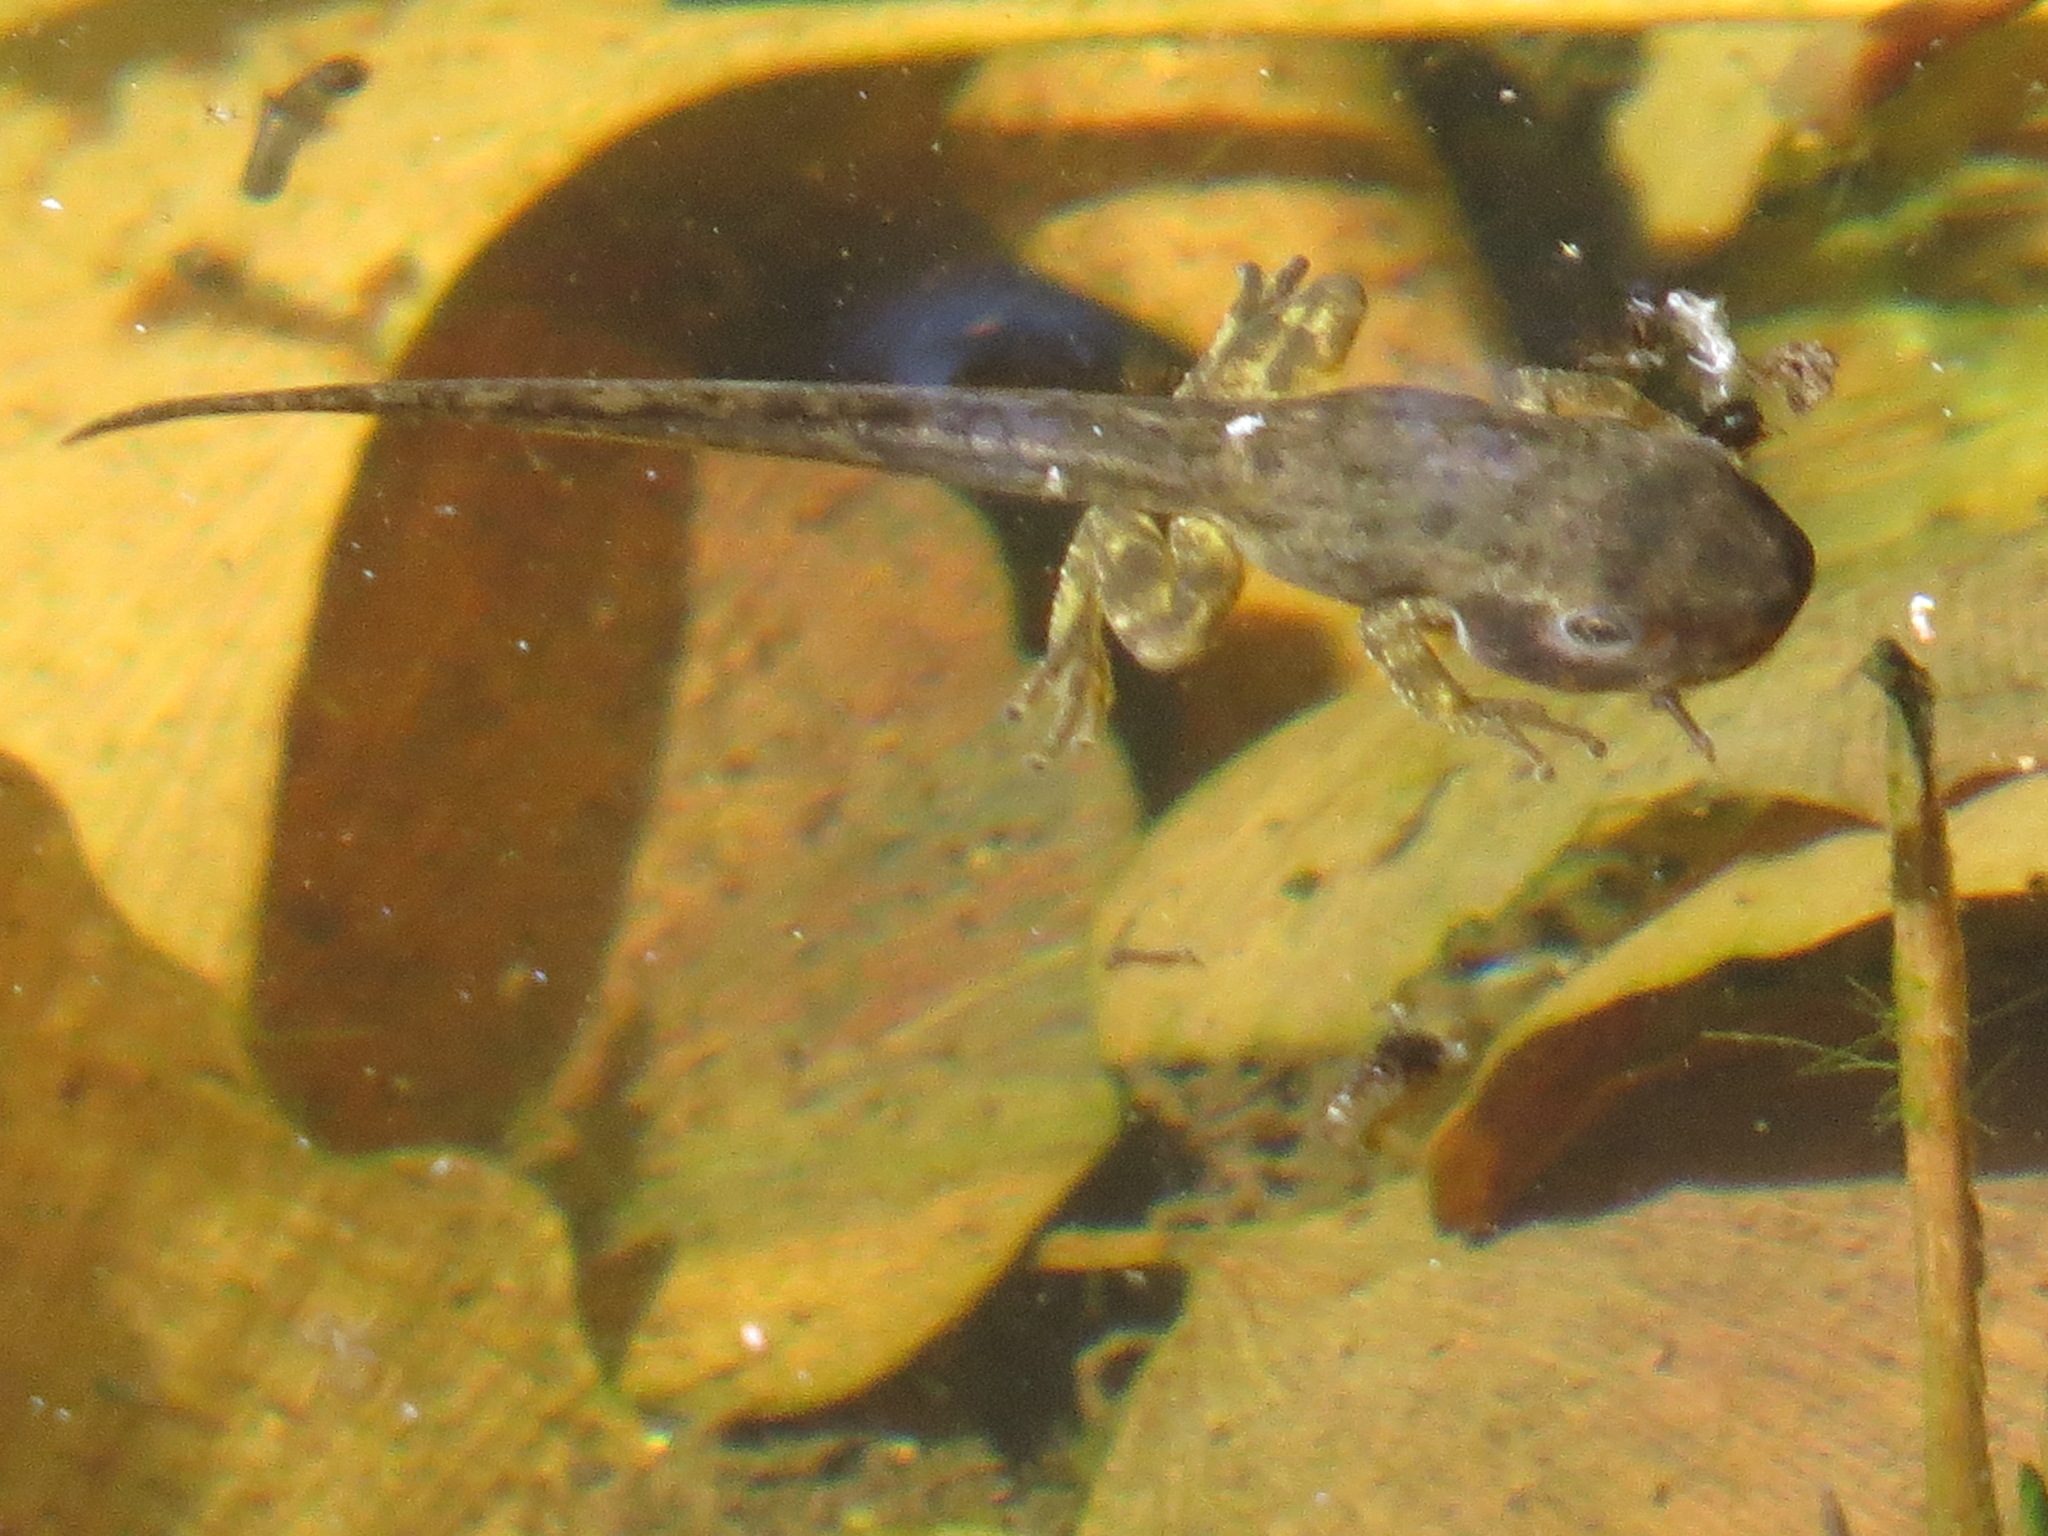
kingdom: Animalia
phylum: Chordata
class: Amphibia
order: Anura
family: Hylidae
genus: Pseudacris
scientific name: Pseudacris regilla
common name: Pacific chorus frog
